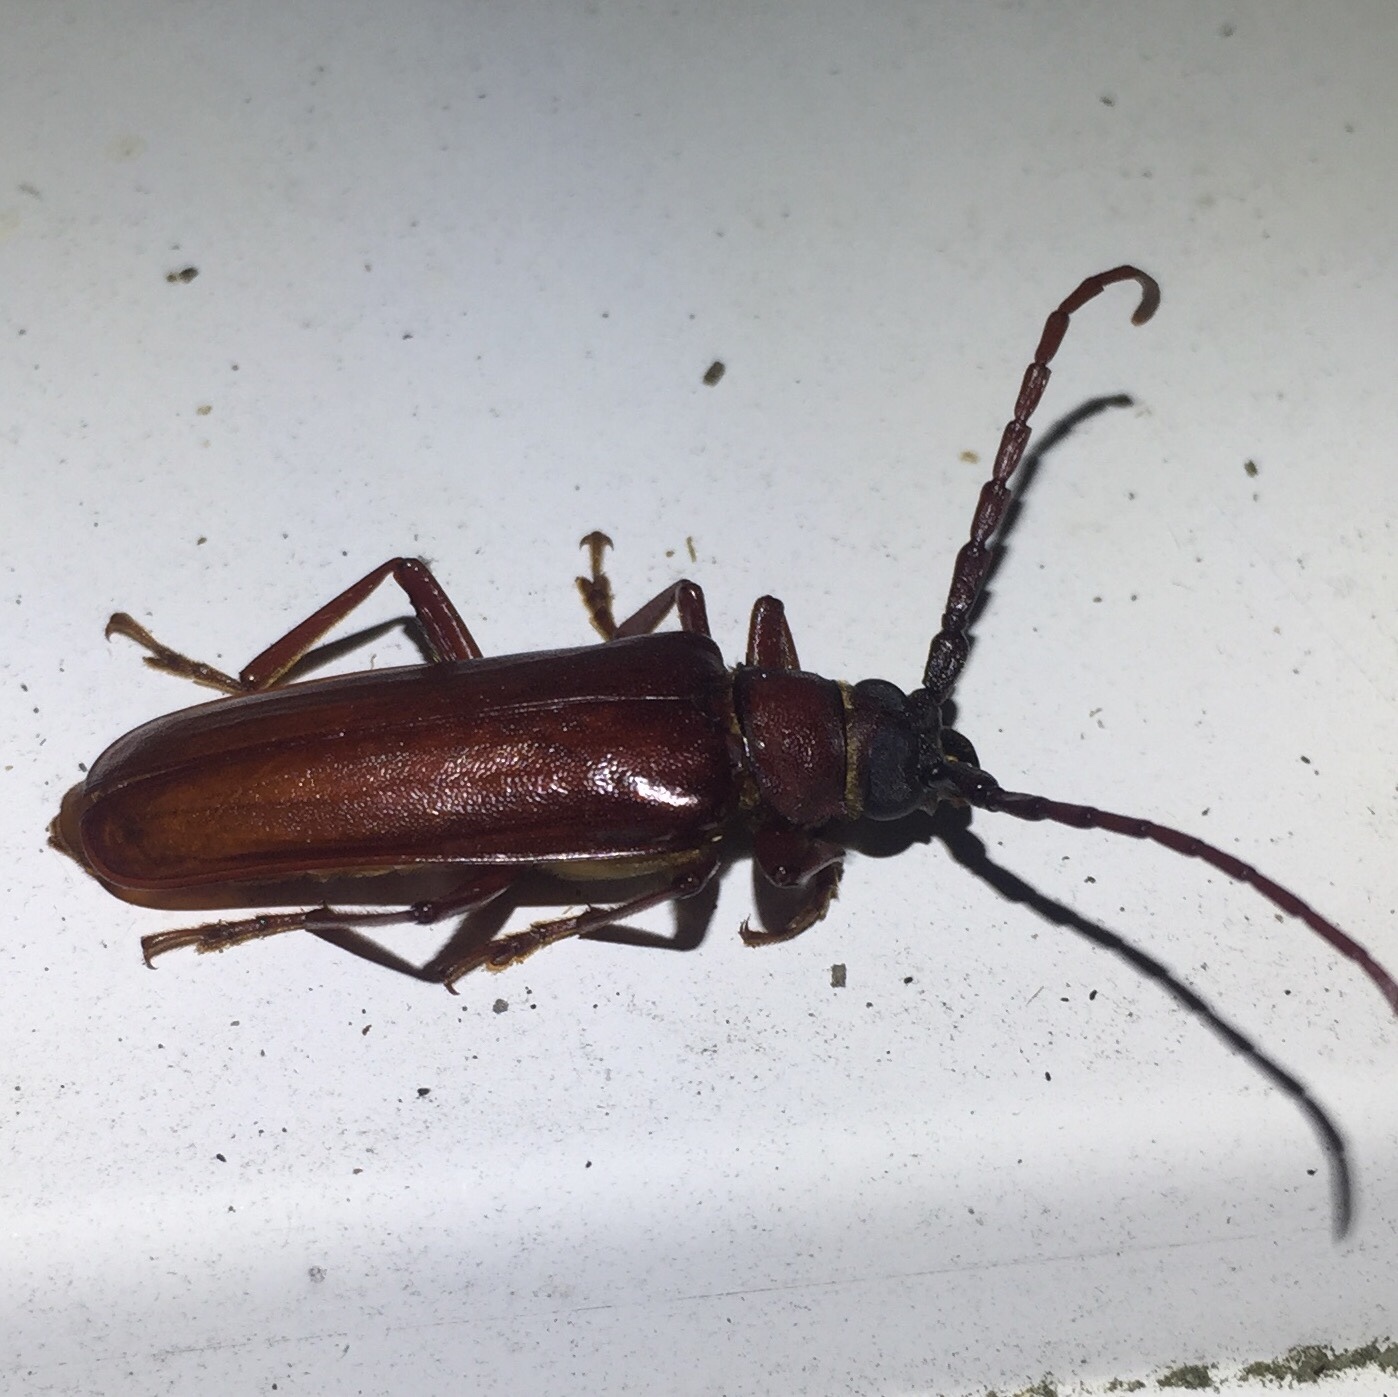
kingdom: Animalia
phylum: Arthropoda
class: Insecta
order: Coleoptera
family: Cerambycidae
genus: Orthosoma
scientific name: Orthosoma brunneum
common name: Brown prionid beetle
